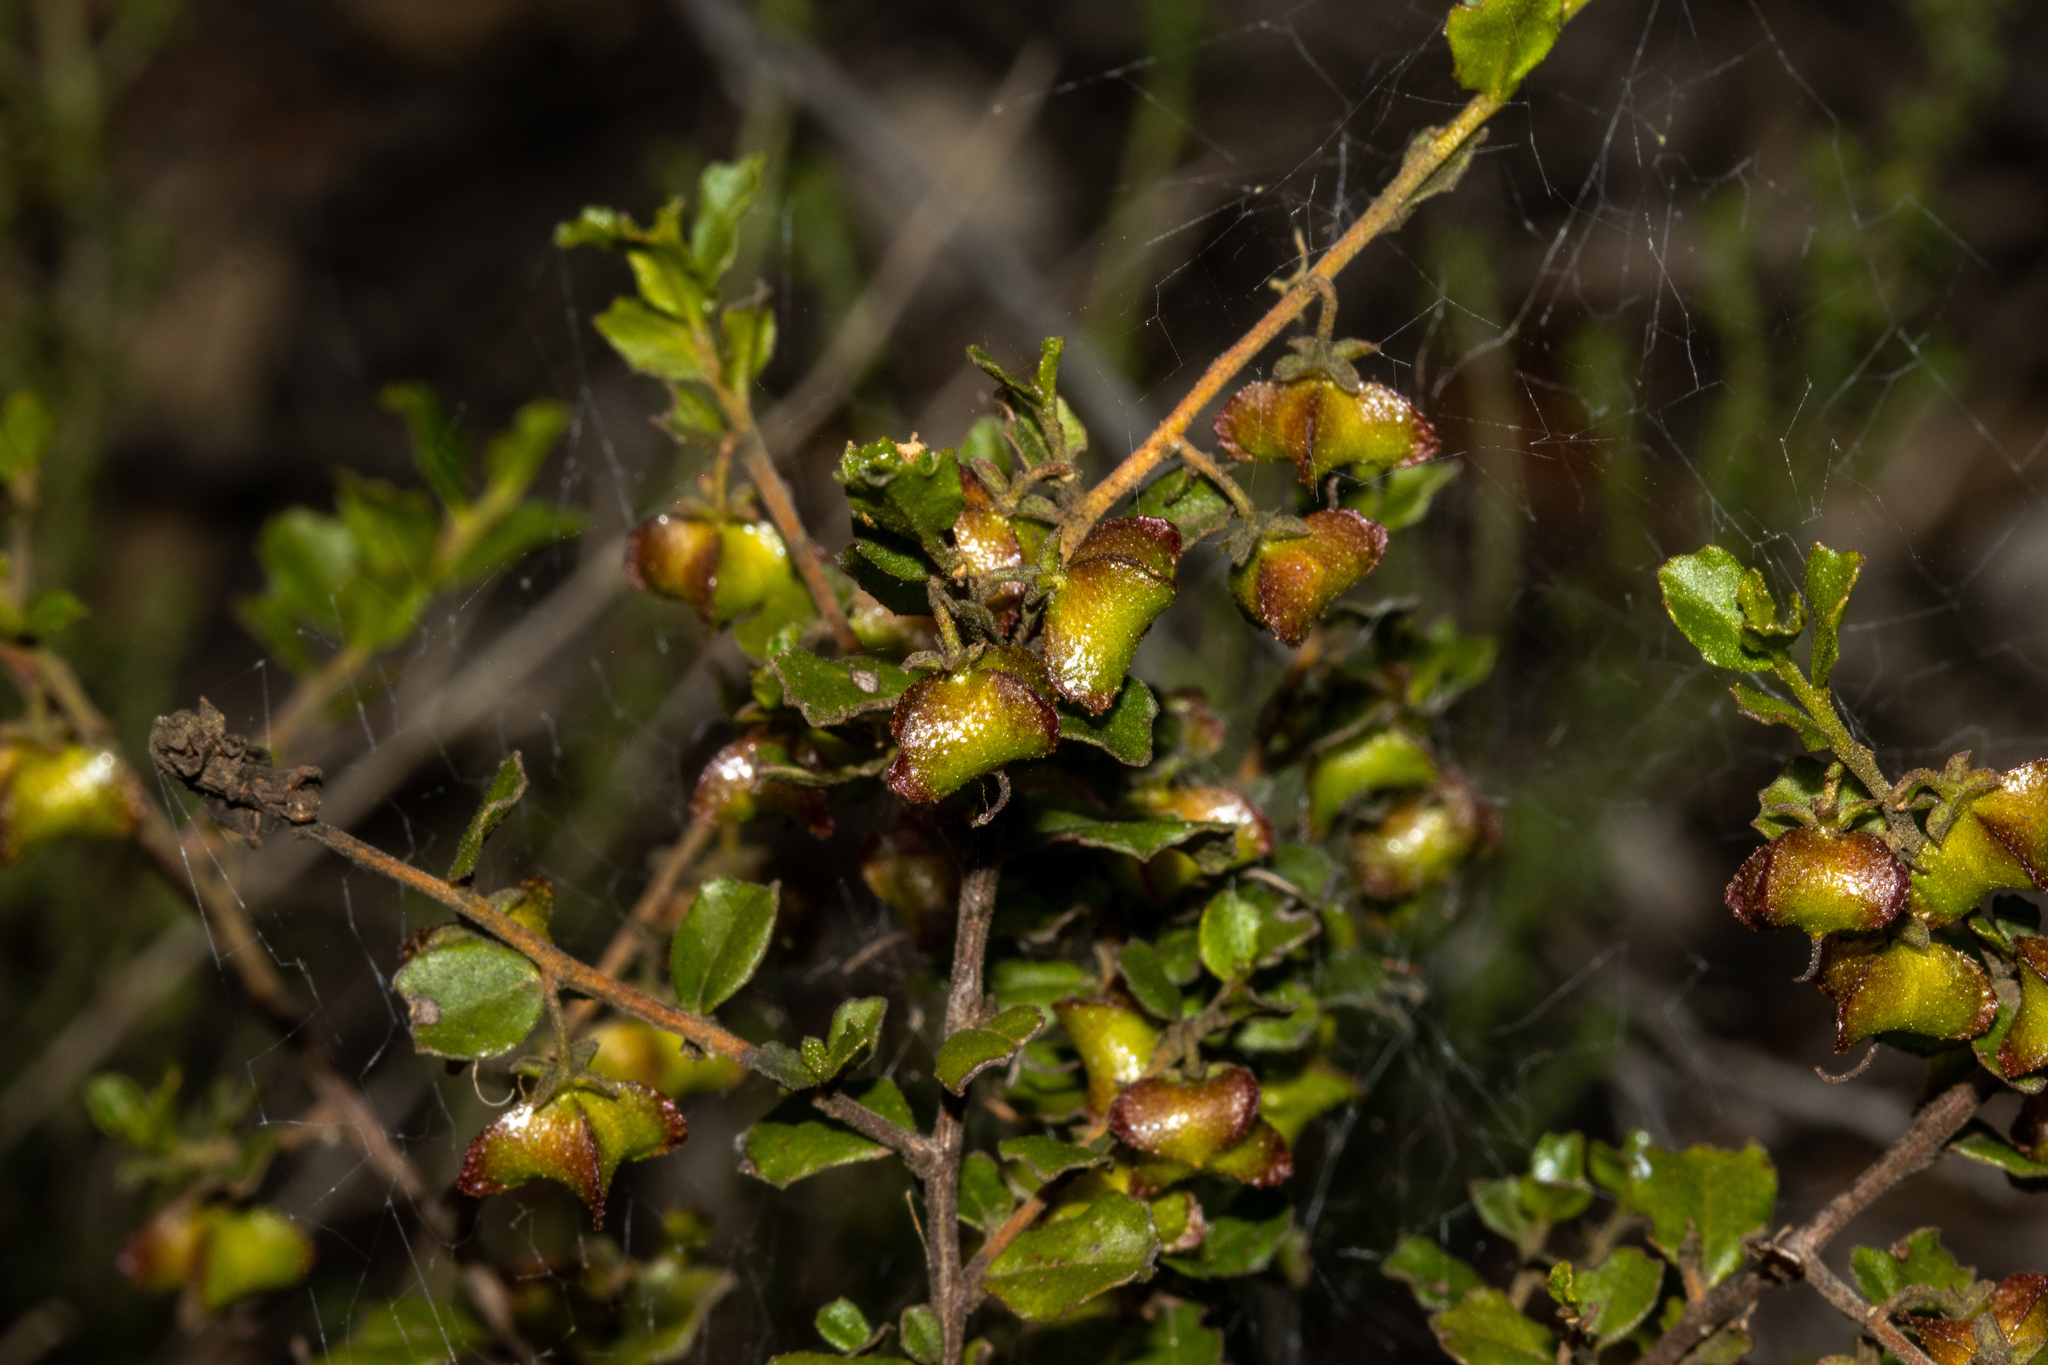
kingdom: Plantae
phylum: Tracheophyta
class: Magnoliopsida
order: Sapindales
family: Sapindaceae
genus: Dodonaea
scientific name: Dodonaea baueri
